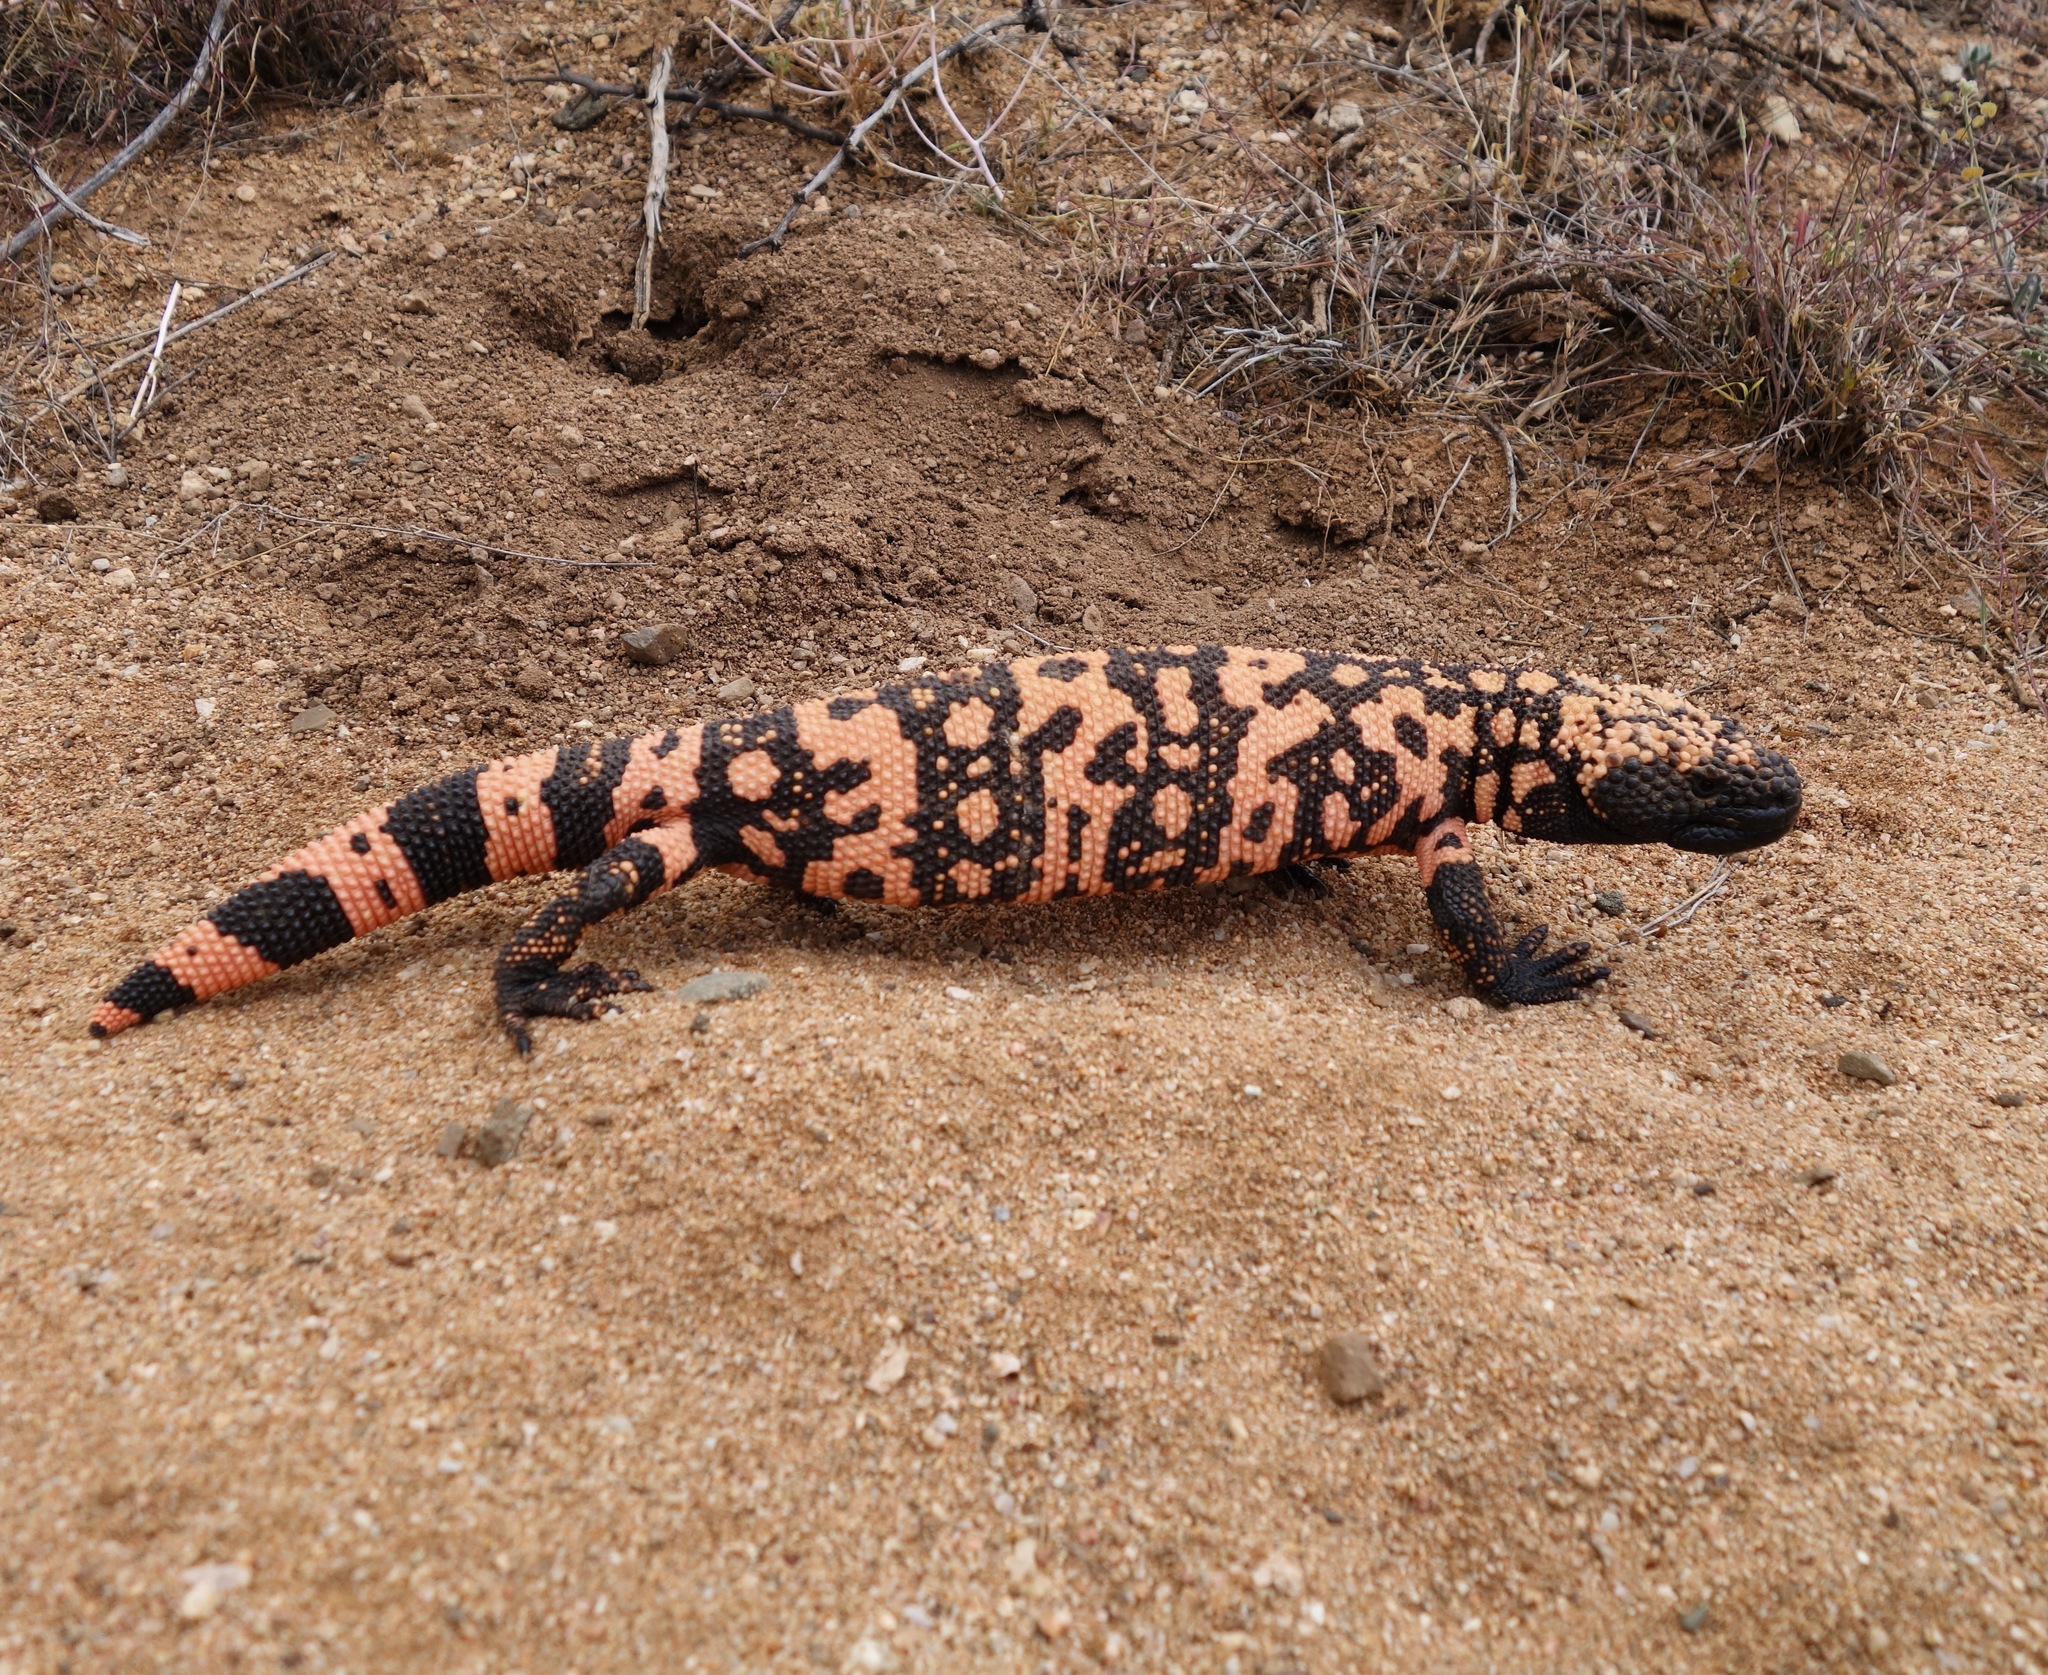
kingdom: Animalia
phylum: Chordata
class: Squamata
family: Helodermatidae
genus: Heloderma
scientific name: Heloderma suspectum
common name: Gila monster
